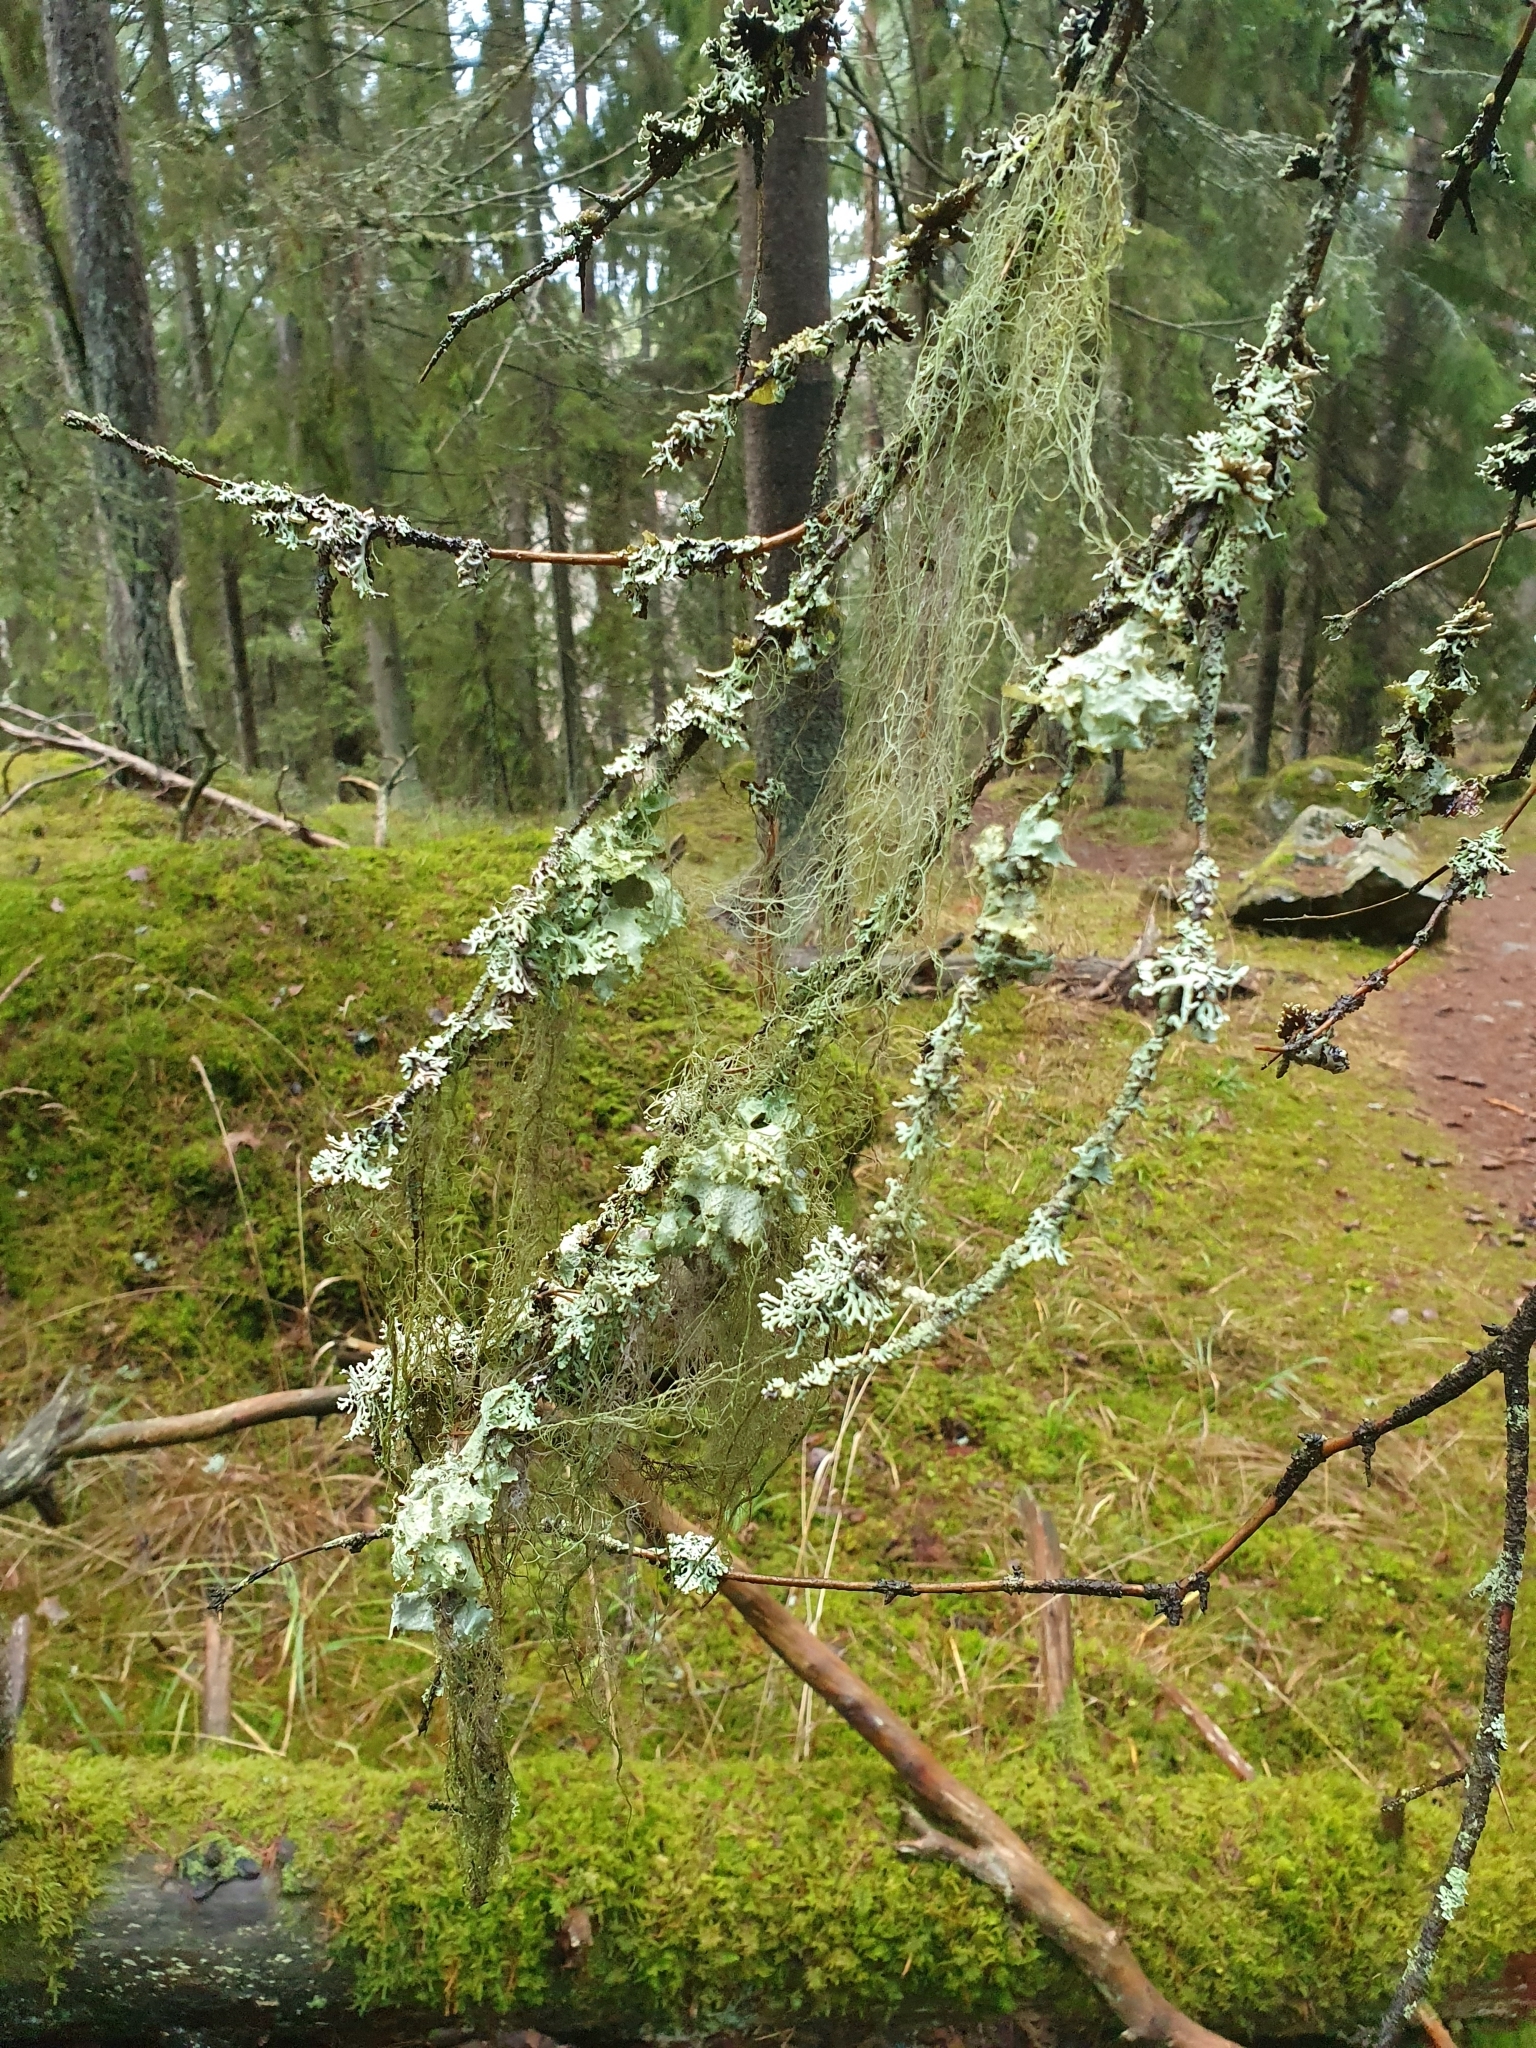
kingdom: Fungi
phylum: Ascomycota
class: Lecanoromycetes
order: Lecanorales
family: Parmeliaceae
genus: Bryoria
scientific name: Bryoria fuscescens
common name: Pale-footed horsehair lichen
